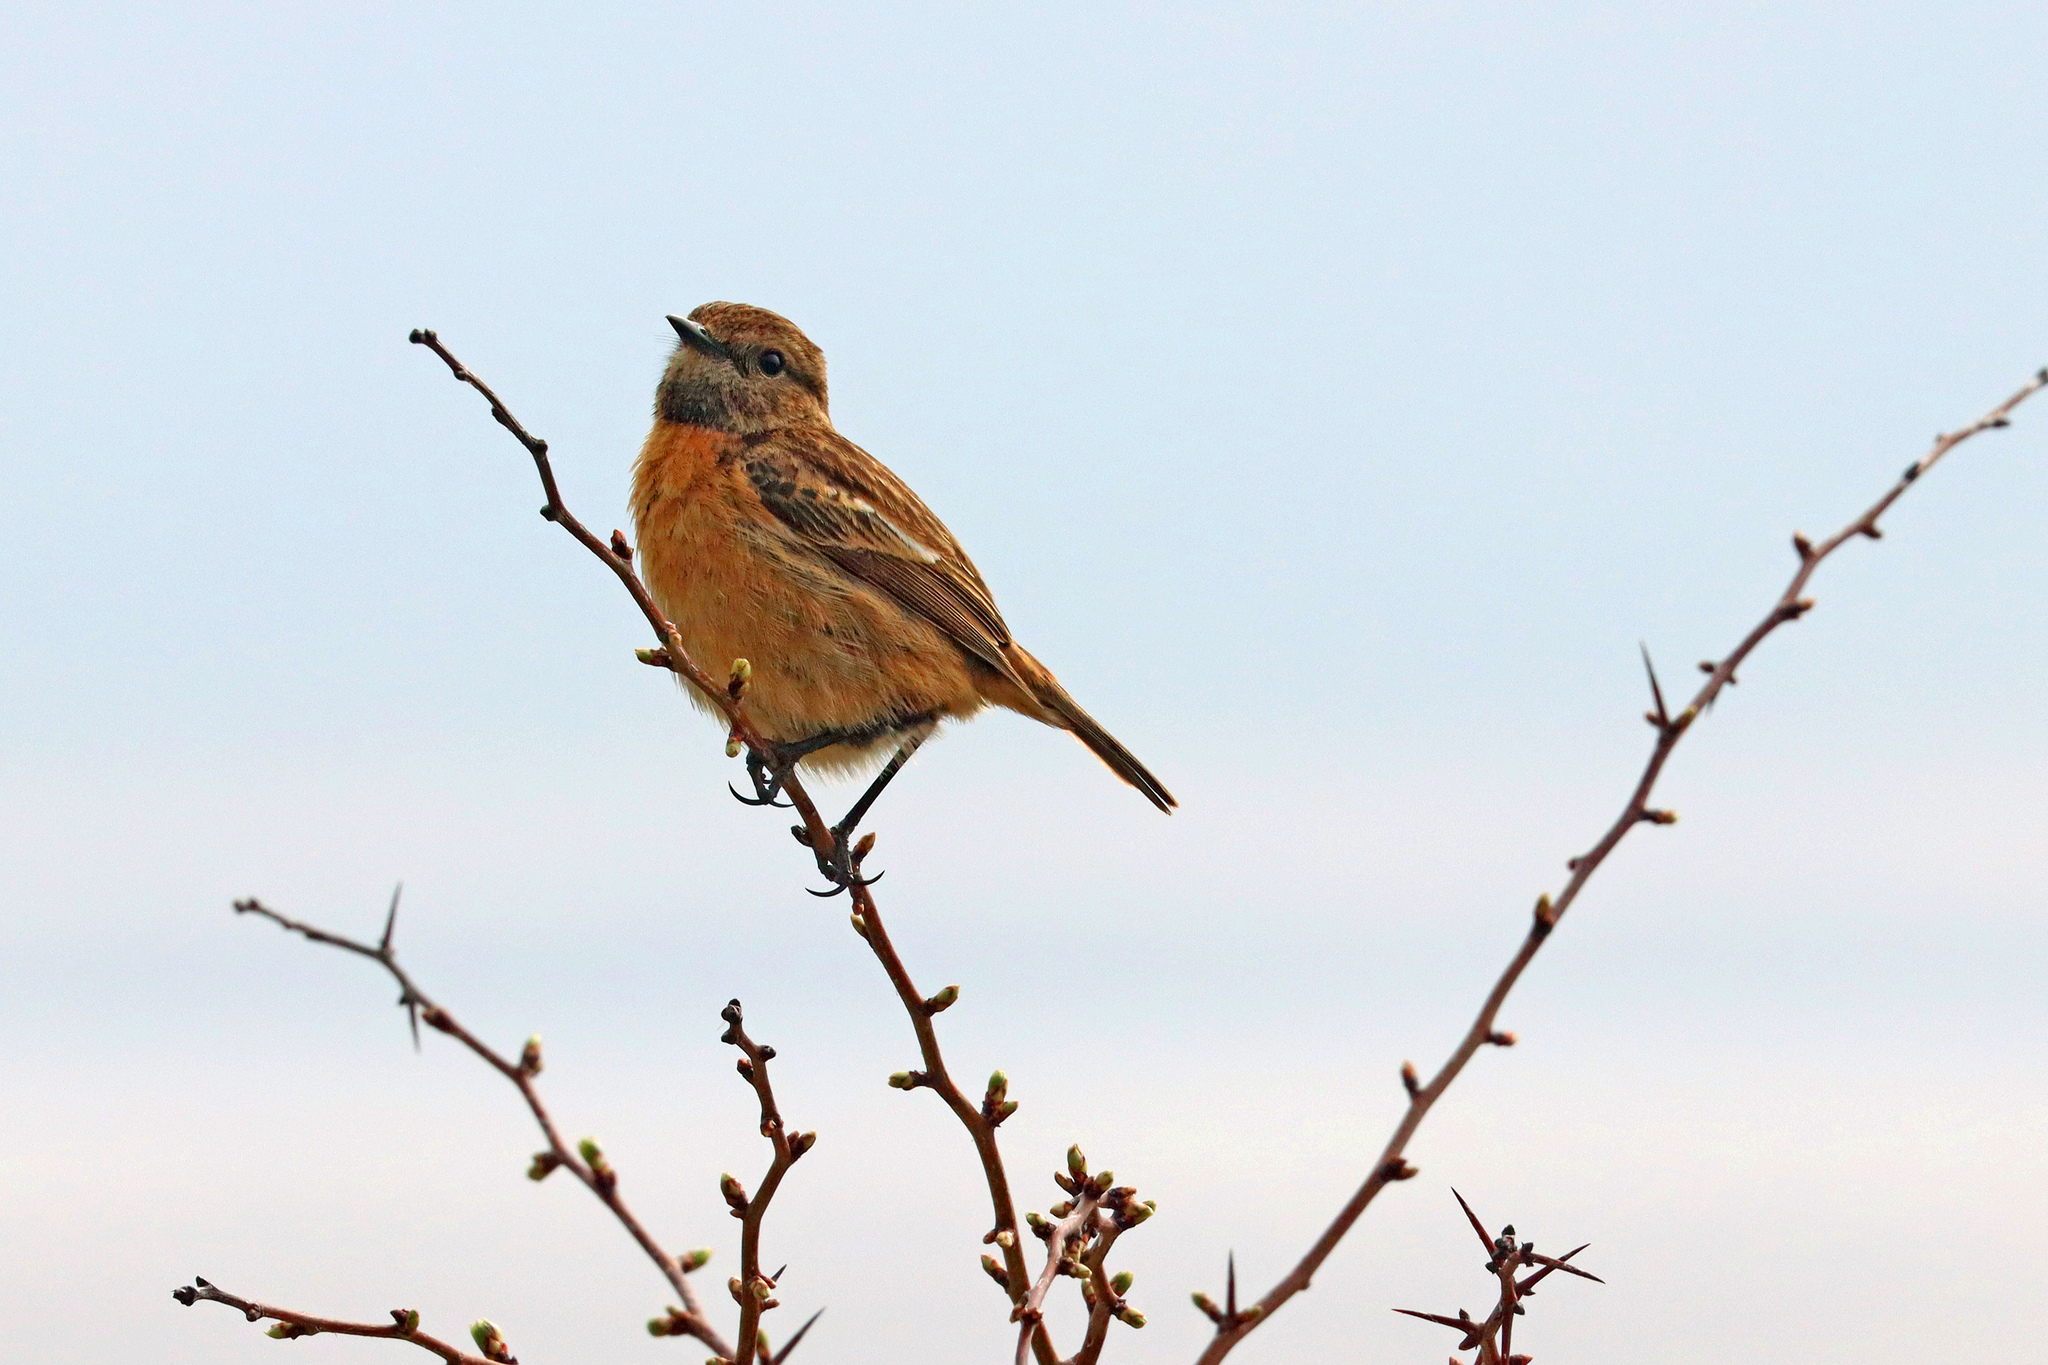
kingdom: Animalia
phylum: Chordata
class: Aves
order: Passeriformes
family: Muscicapidae
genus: Saxicola
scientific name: Saxicola rubicola
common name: European stonechat
